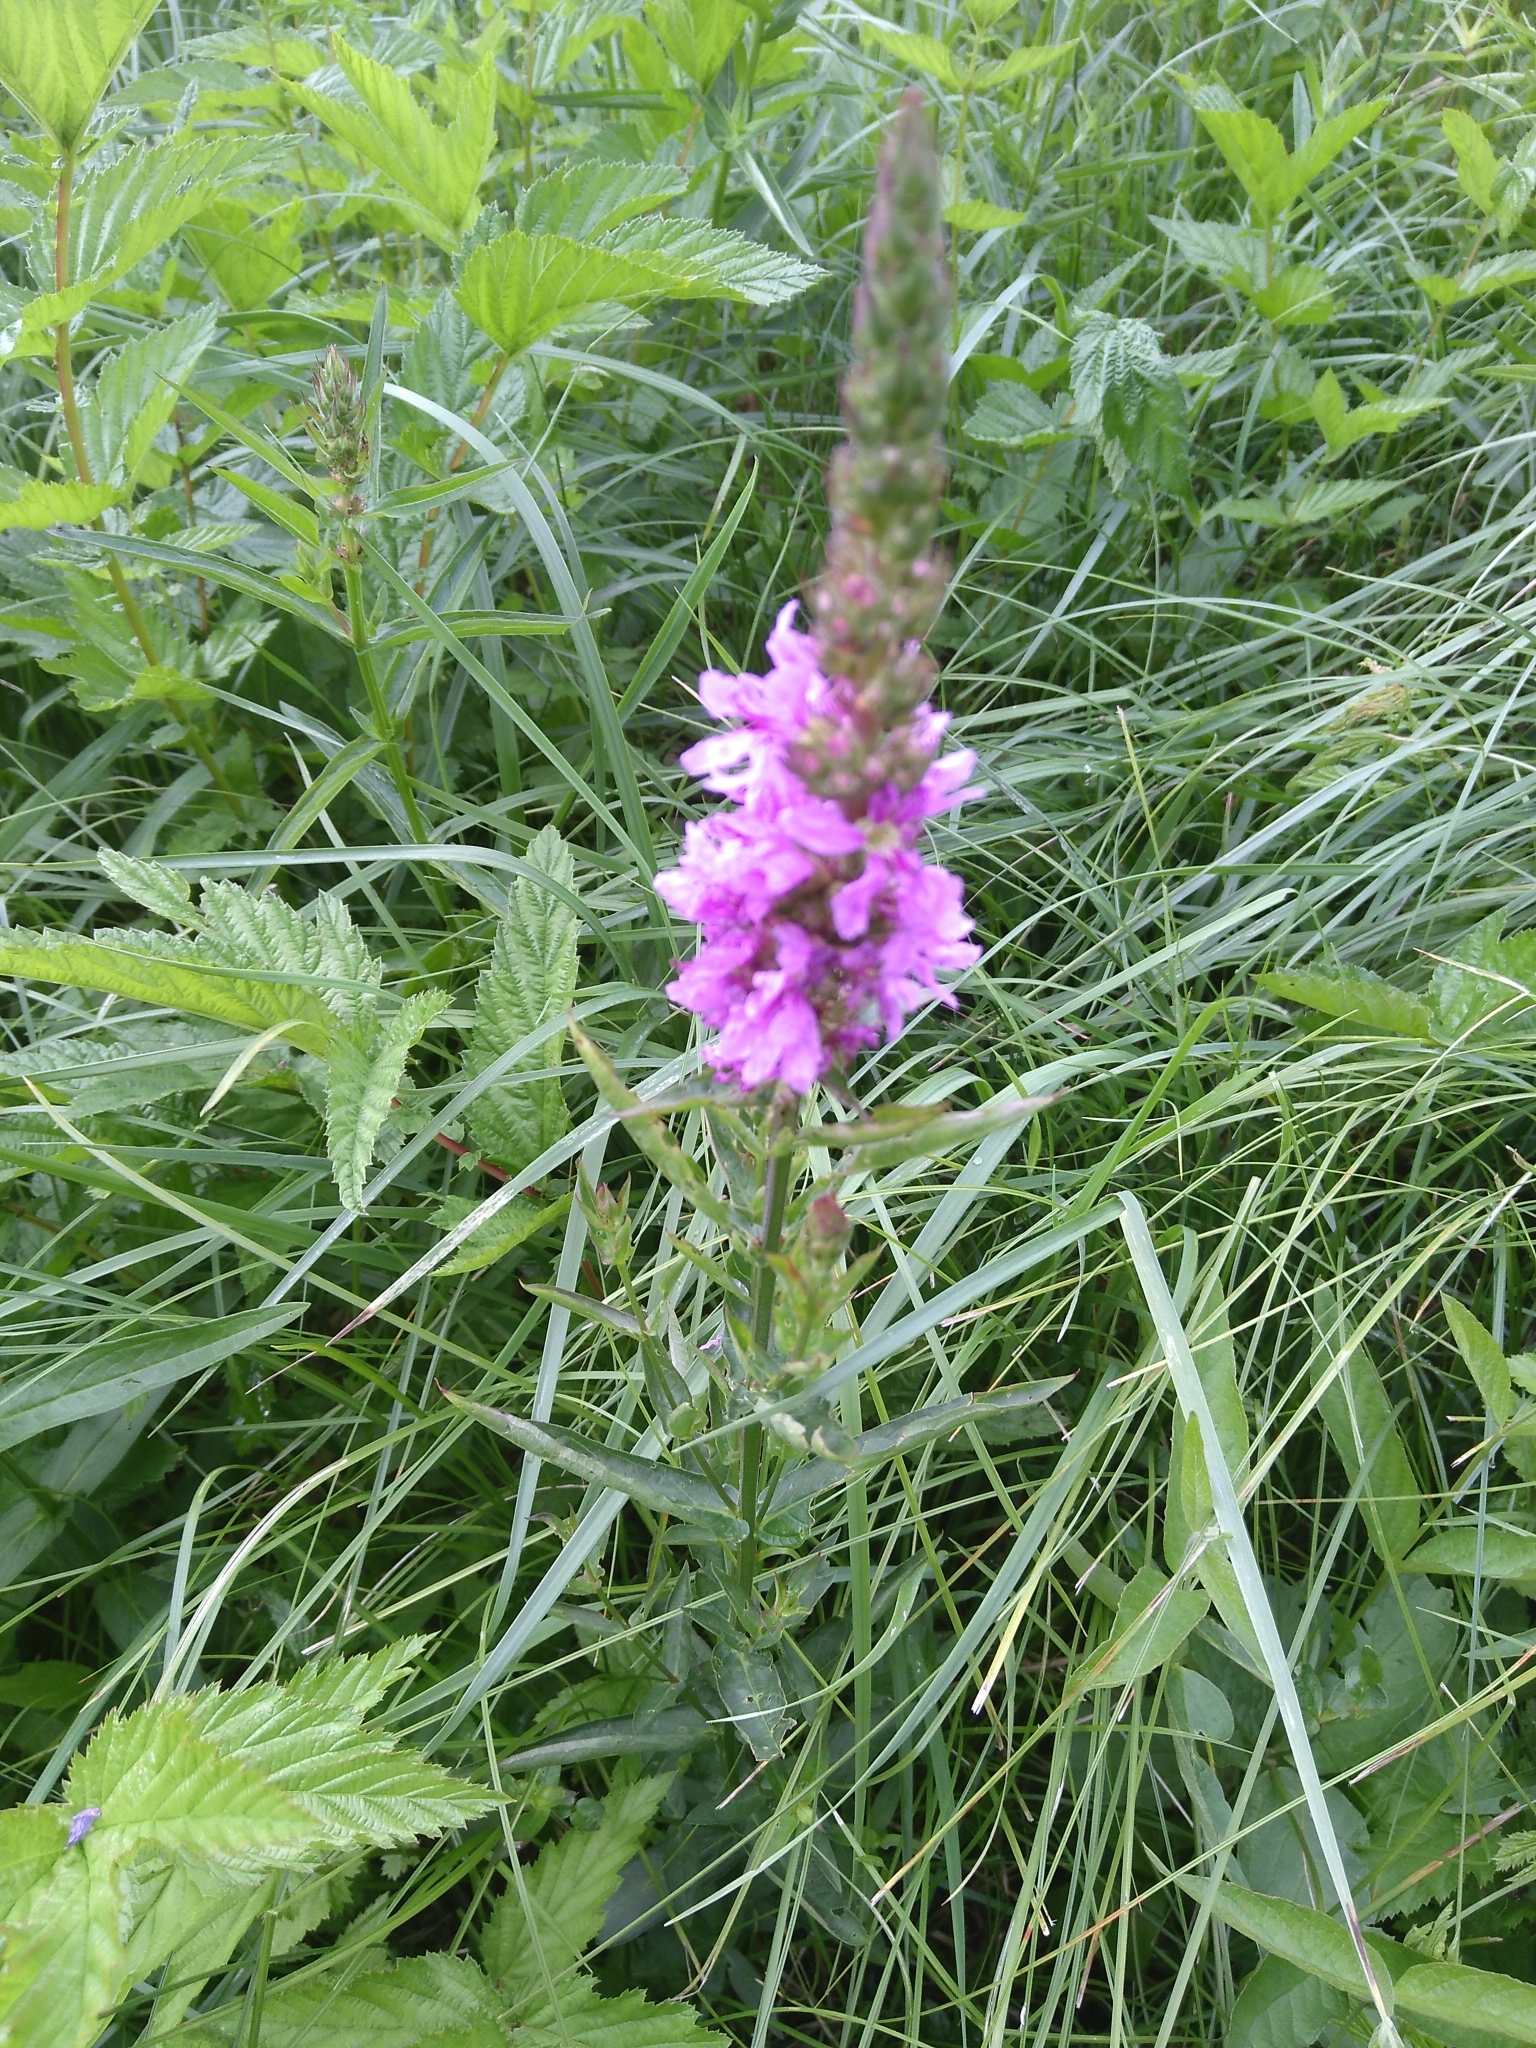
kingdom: Plantae
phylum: Tracheophyta
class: Magnoliopsida
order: Myrtales
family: Lythraceae
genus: Lythrum
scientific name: Lythrum salicaria
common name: Purple loosestrife
